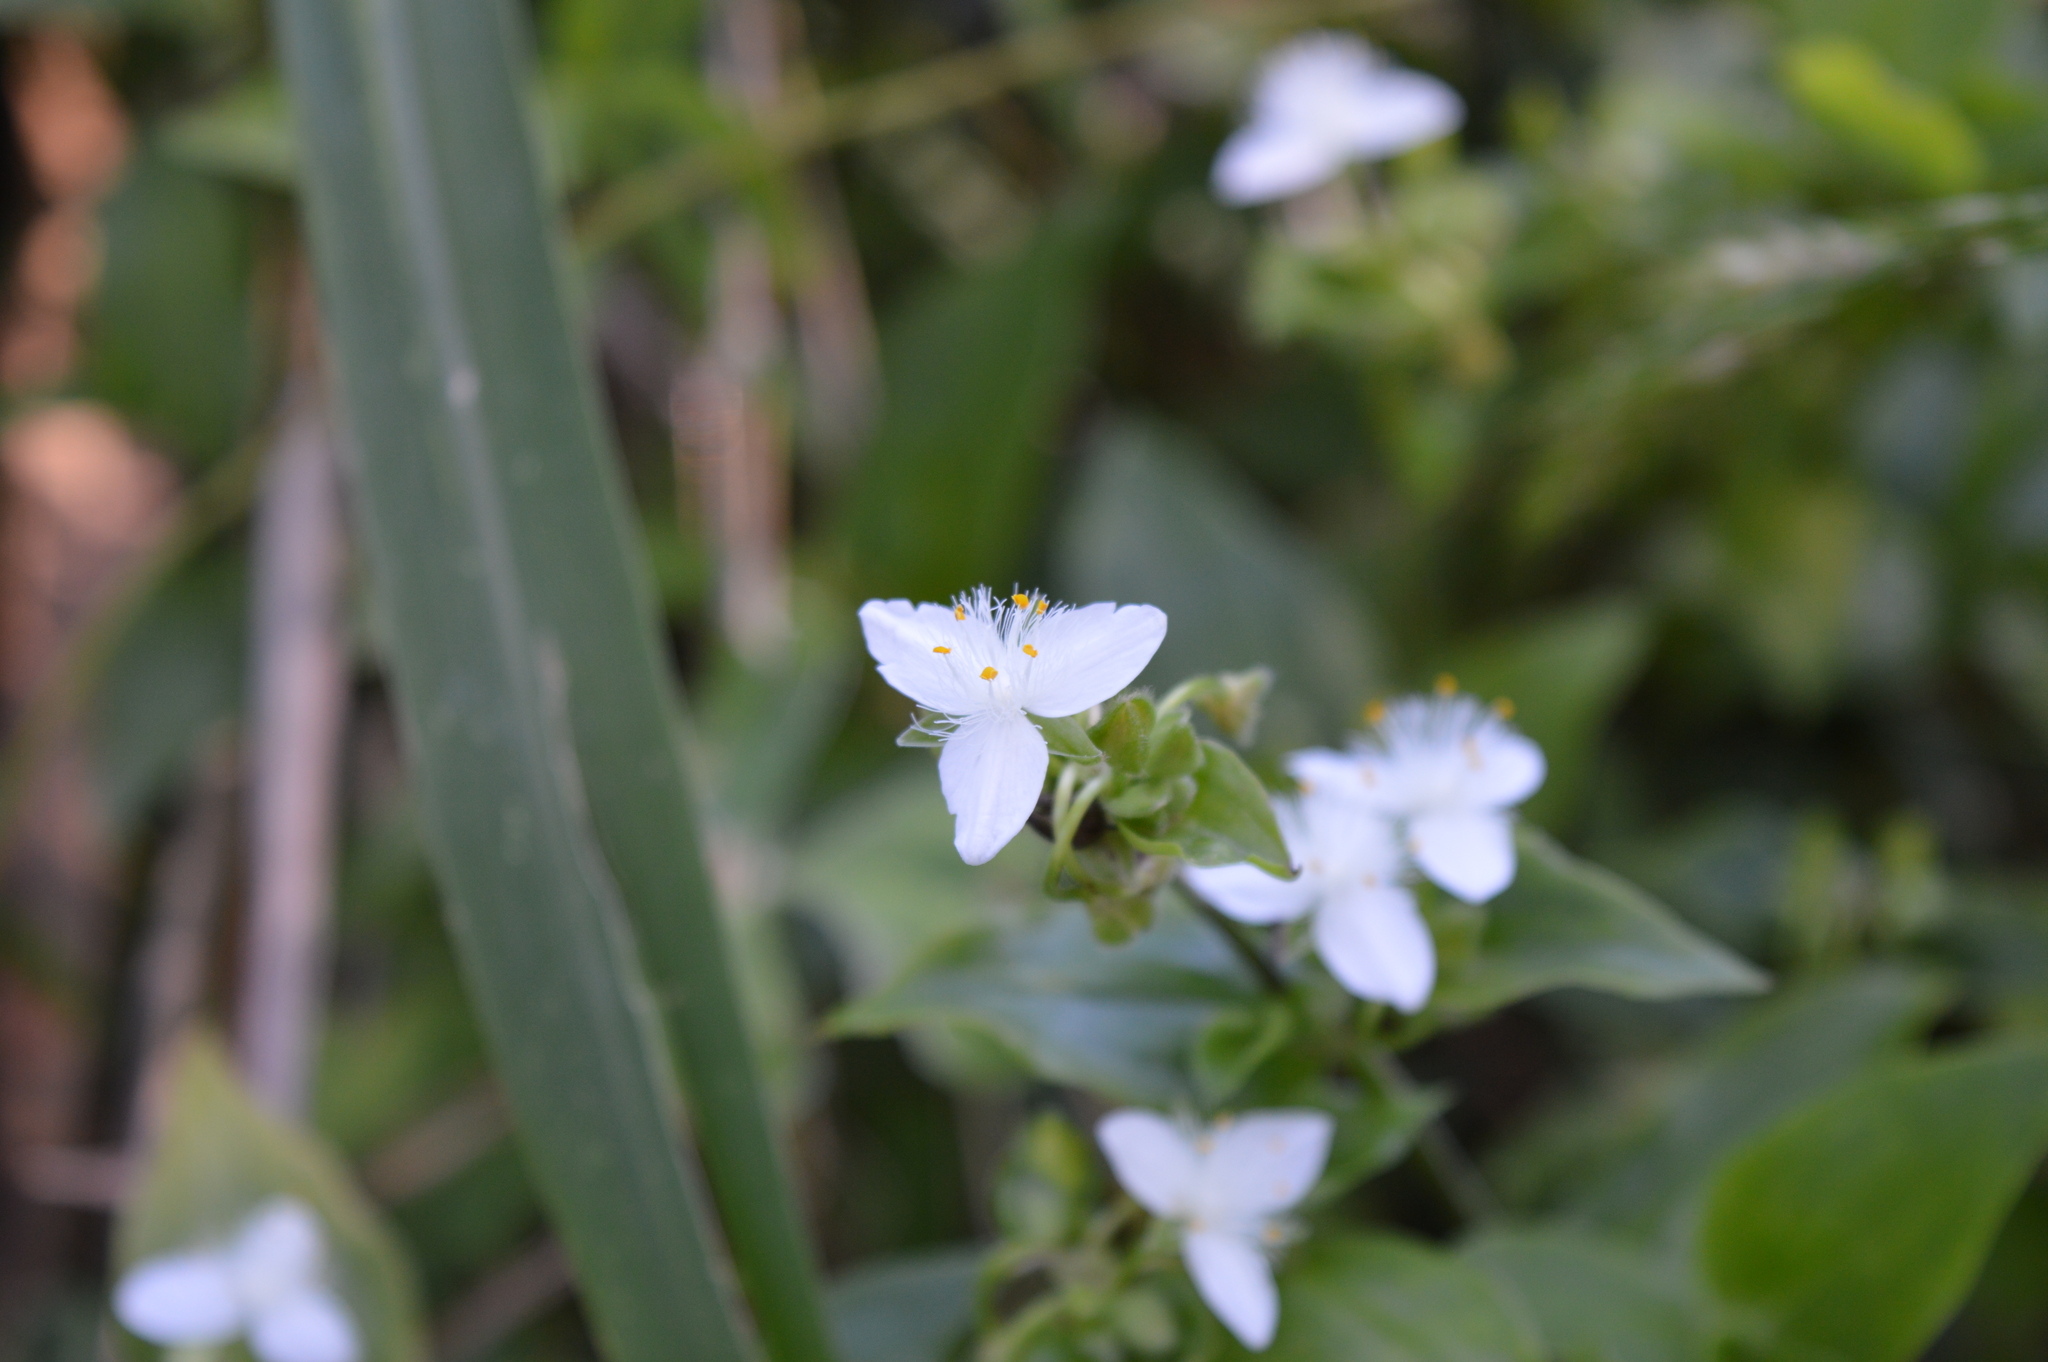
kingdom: Plantae
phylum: Tracheophyta
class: Liliopsida
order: Commelinales
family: Commelinaceae
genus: Tradescantia
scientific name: Tradescantia fluminensis
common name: Wandering-jew
